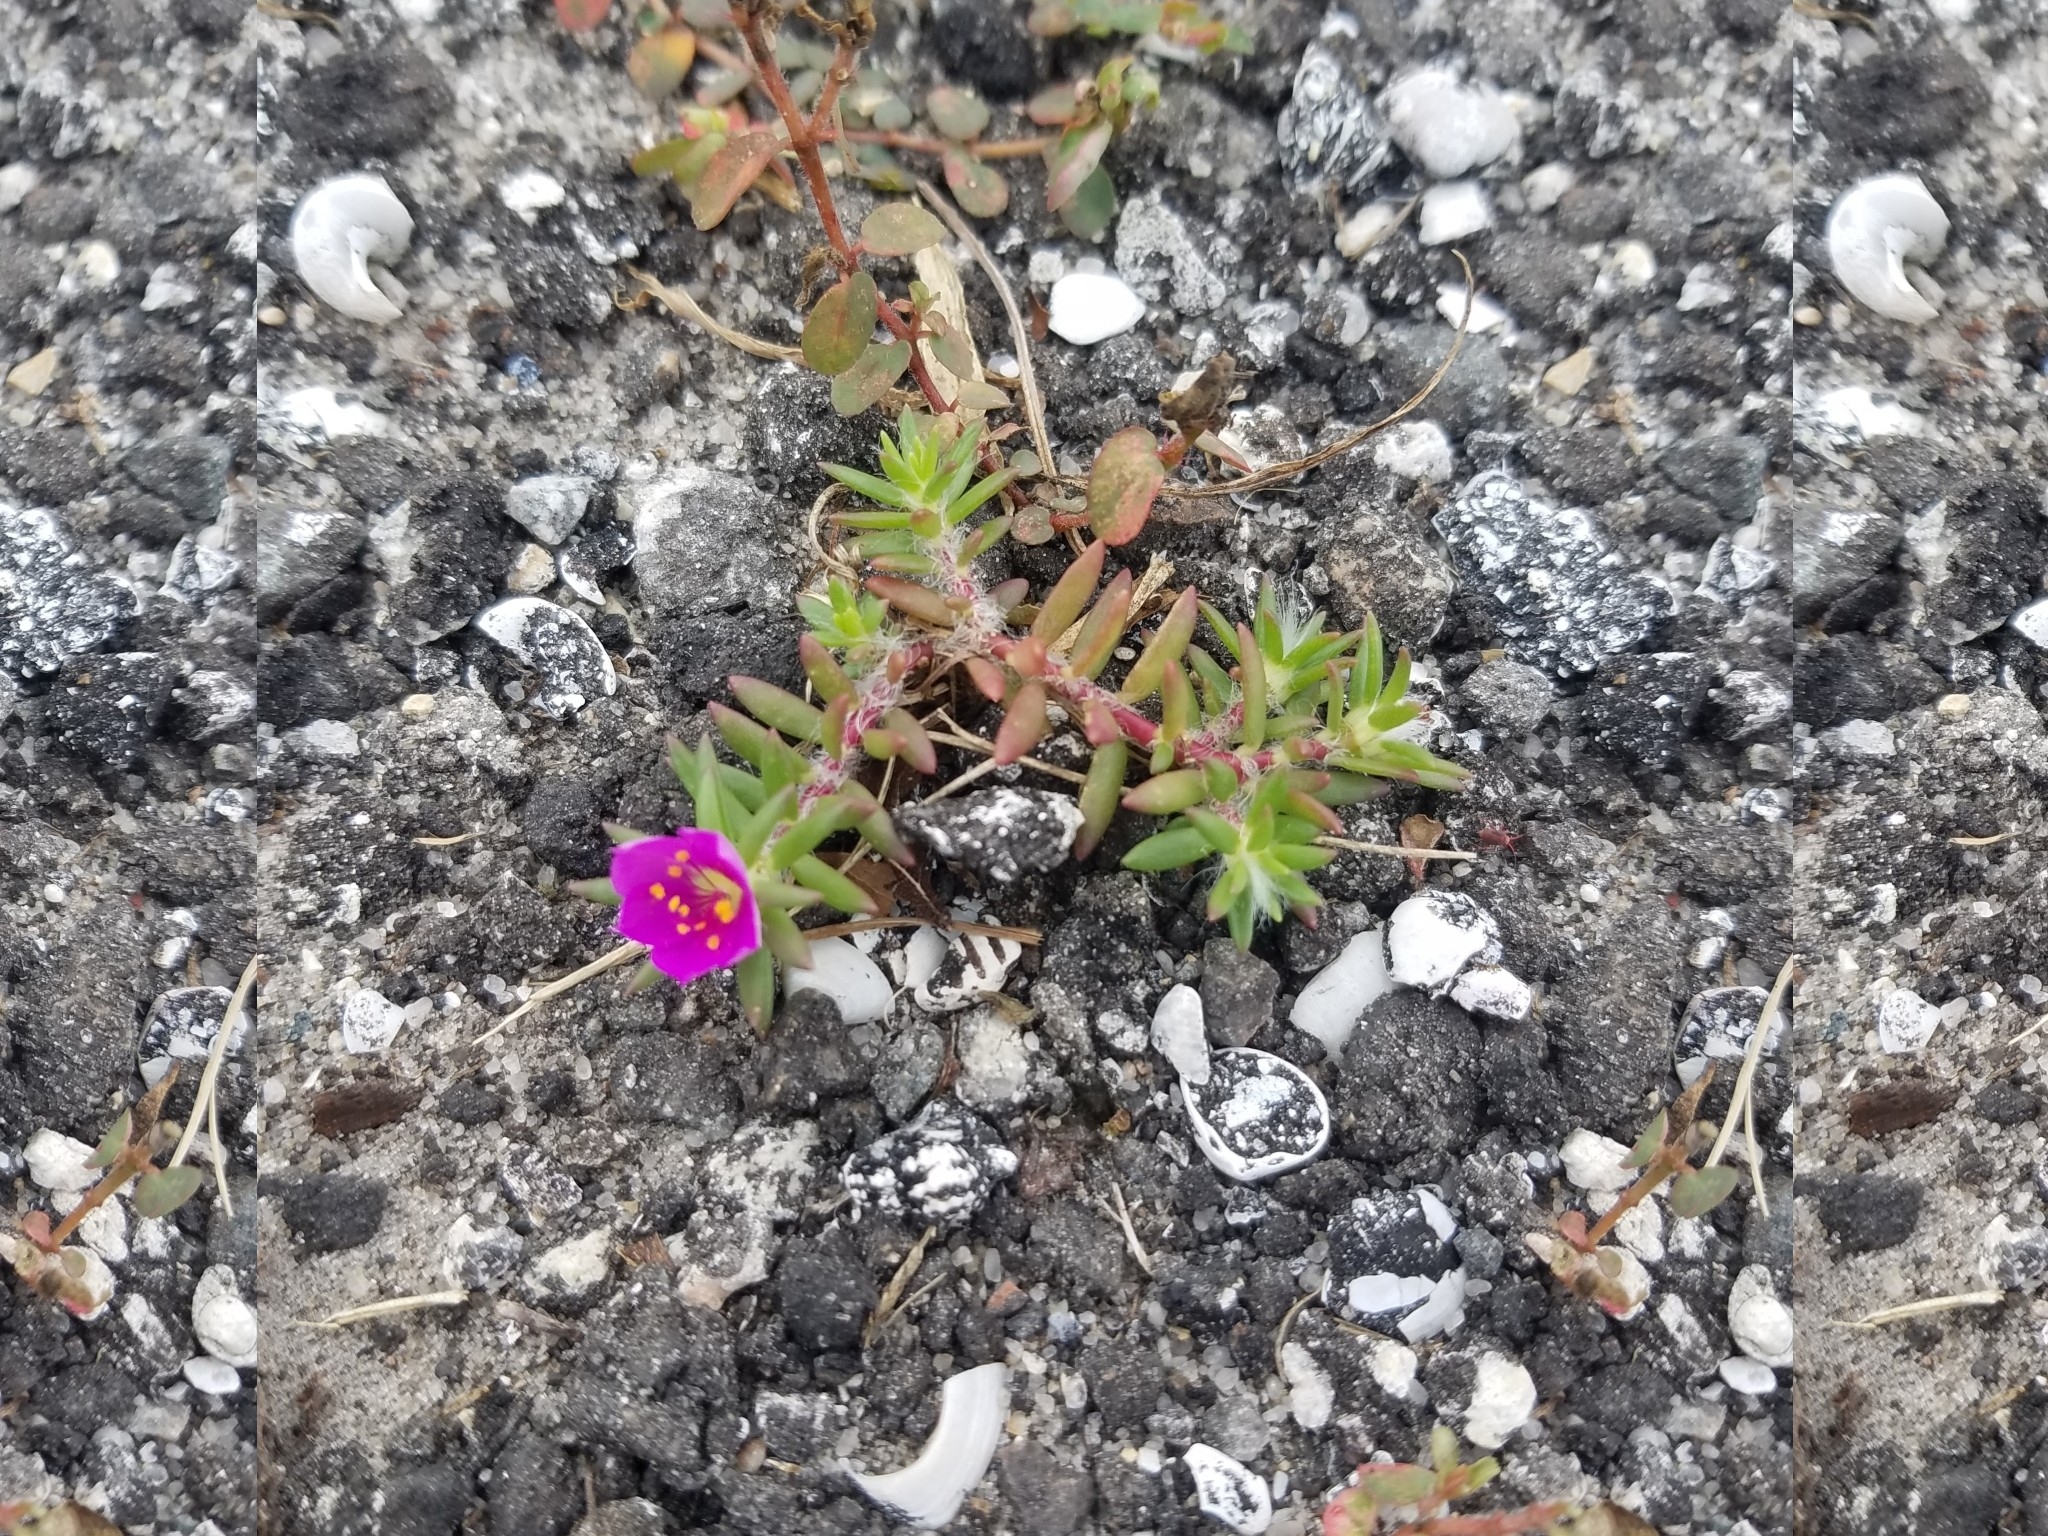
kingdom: Plantae
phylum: Tracheophyta
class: Magnoliopsida
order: Caryophyllales
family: Portulacaceae
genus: Portulaca
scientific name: Portulaca pilosa
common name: Kiss me quick
